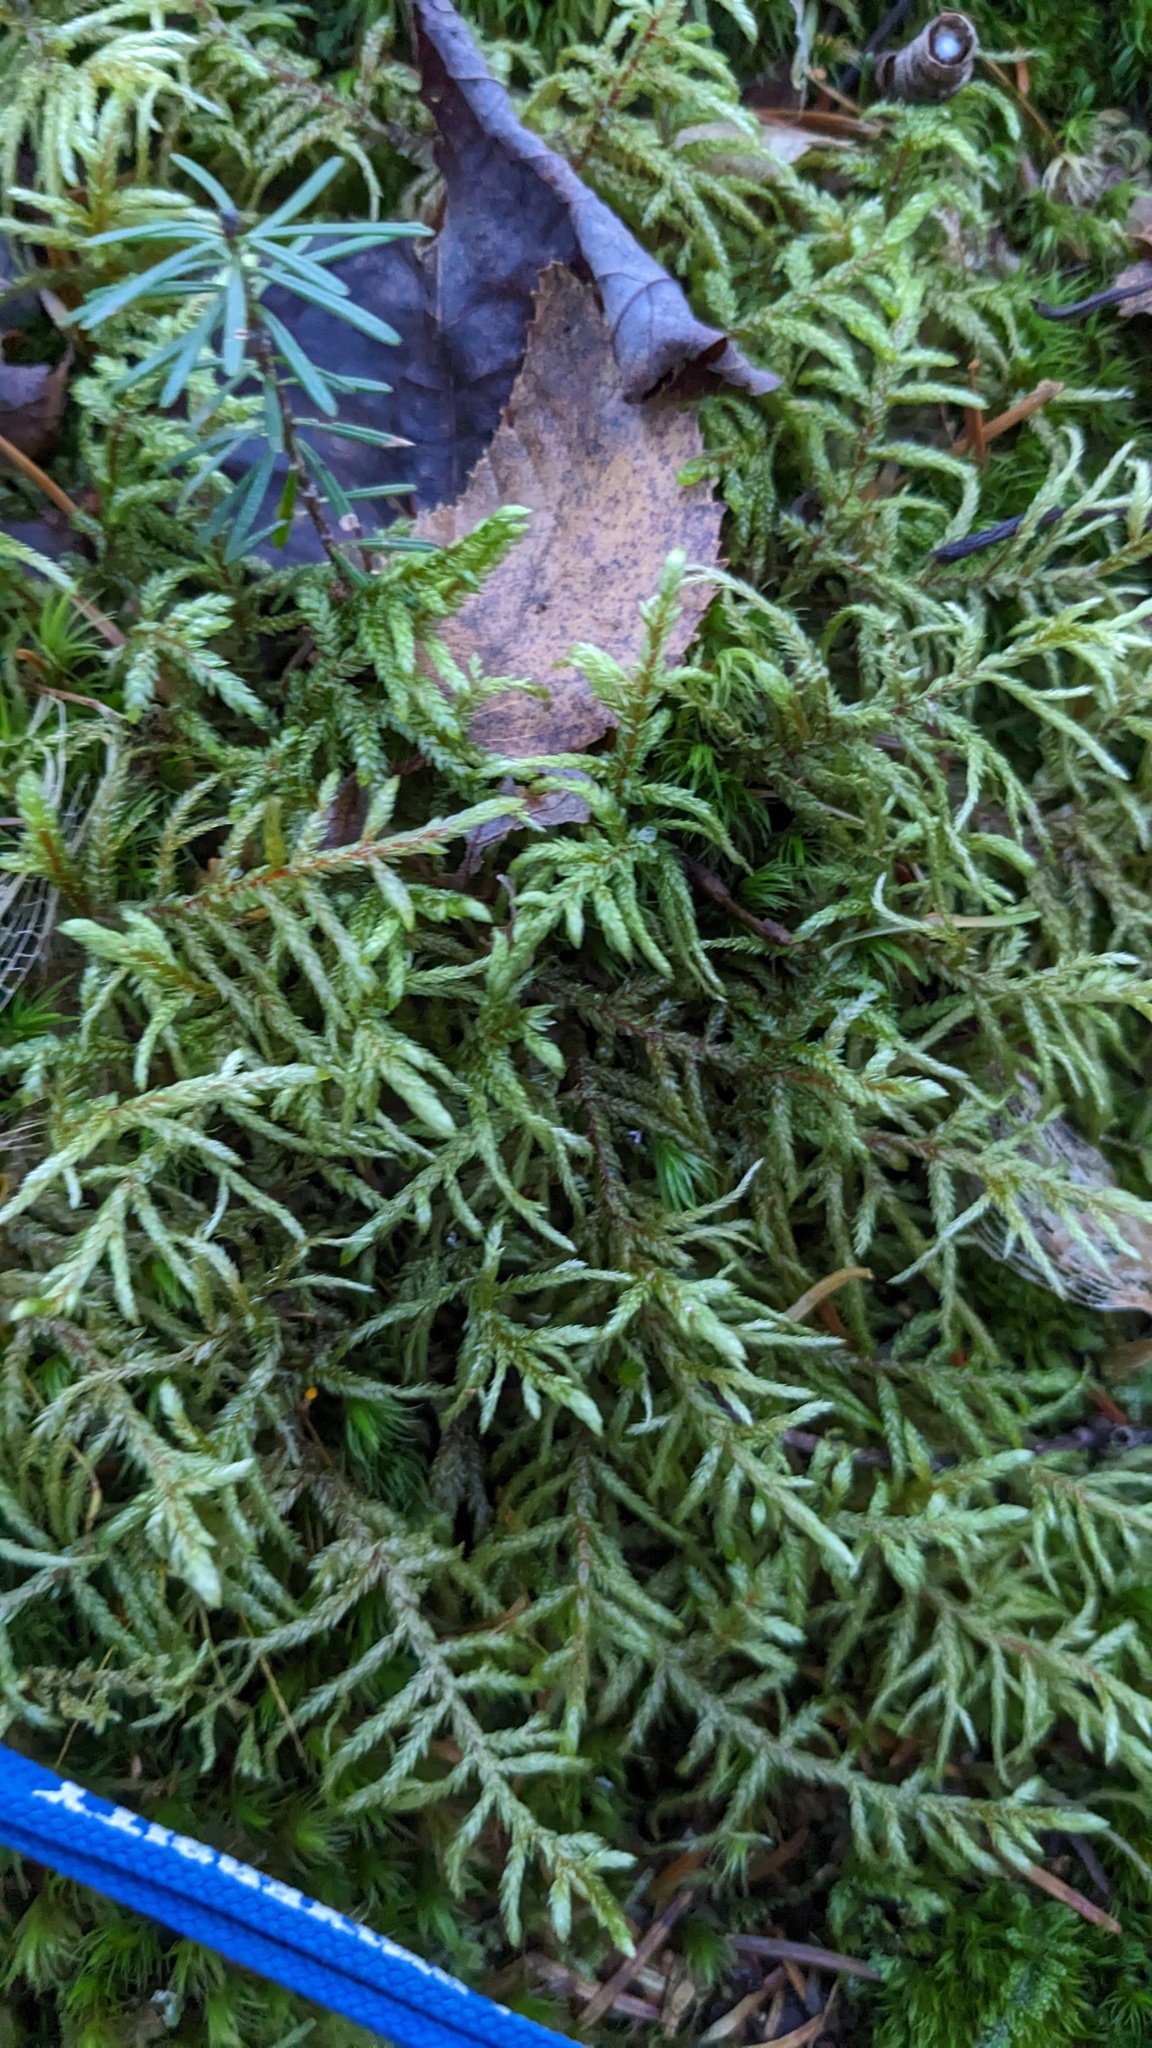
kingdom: Plantae
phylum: Bryophyta
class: Bryopsida
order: Hypnales
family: Hylocomiaceae
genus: Pleurozium
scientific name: Pleurozium schreberi
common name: Red-stemmed feather moss
